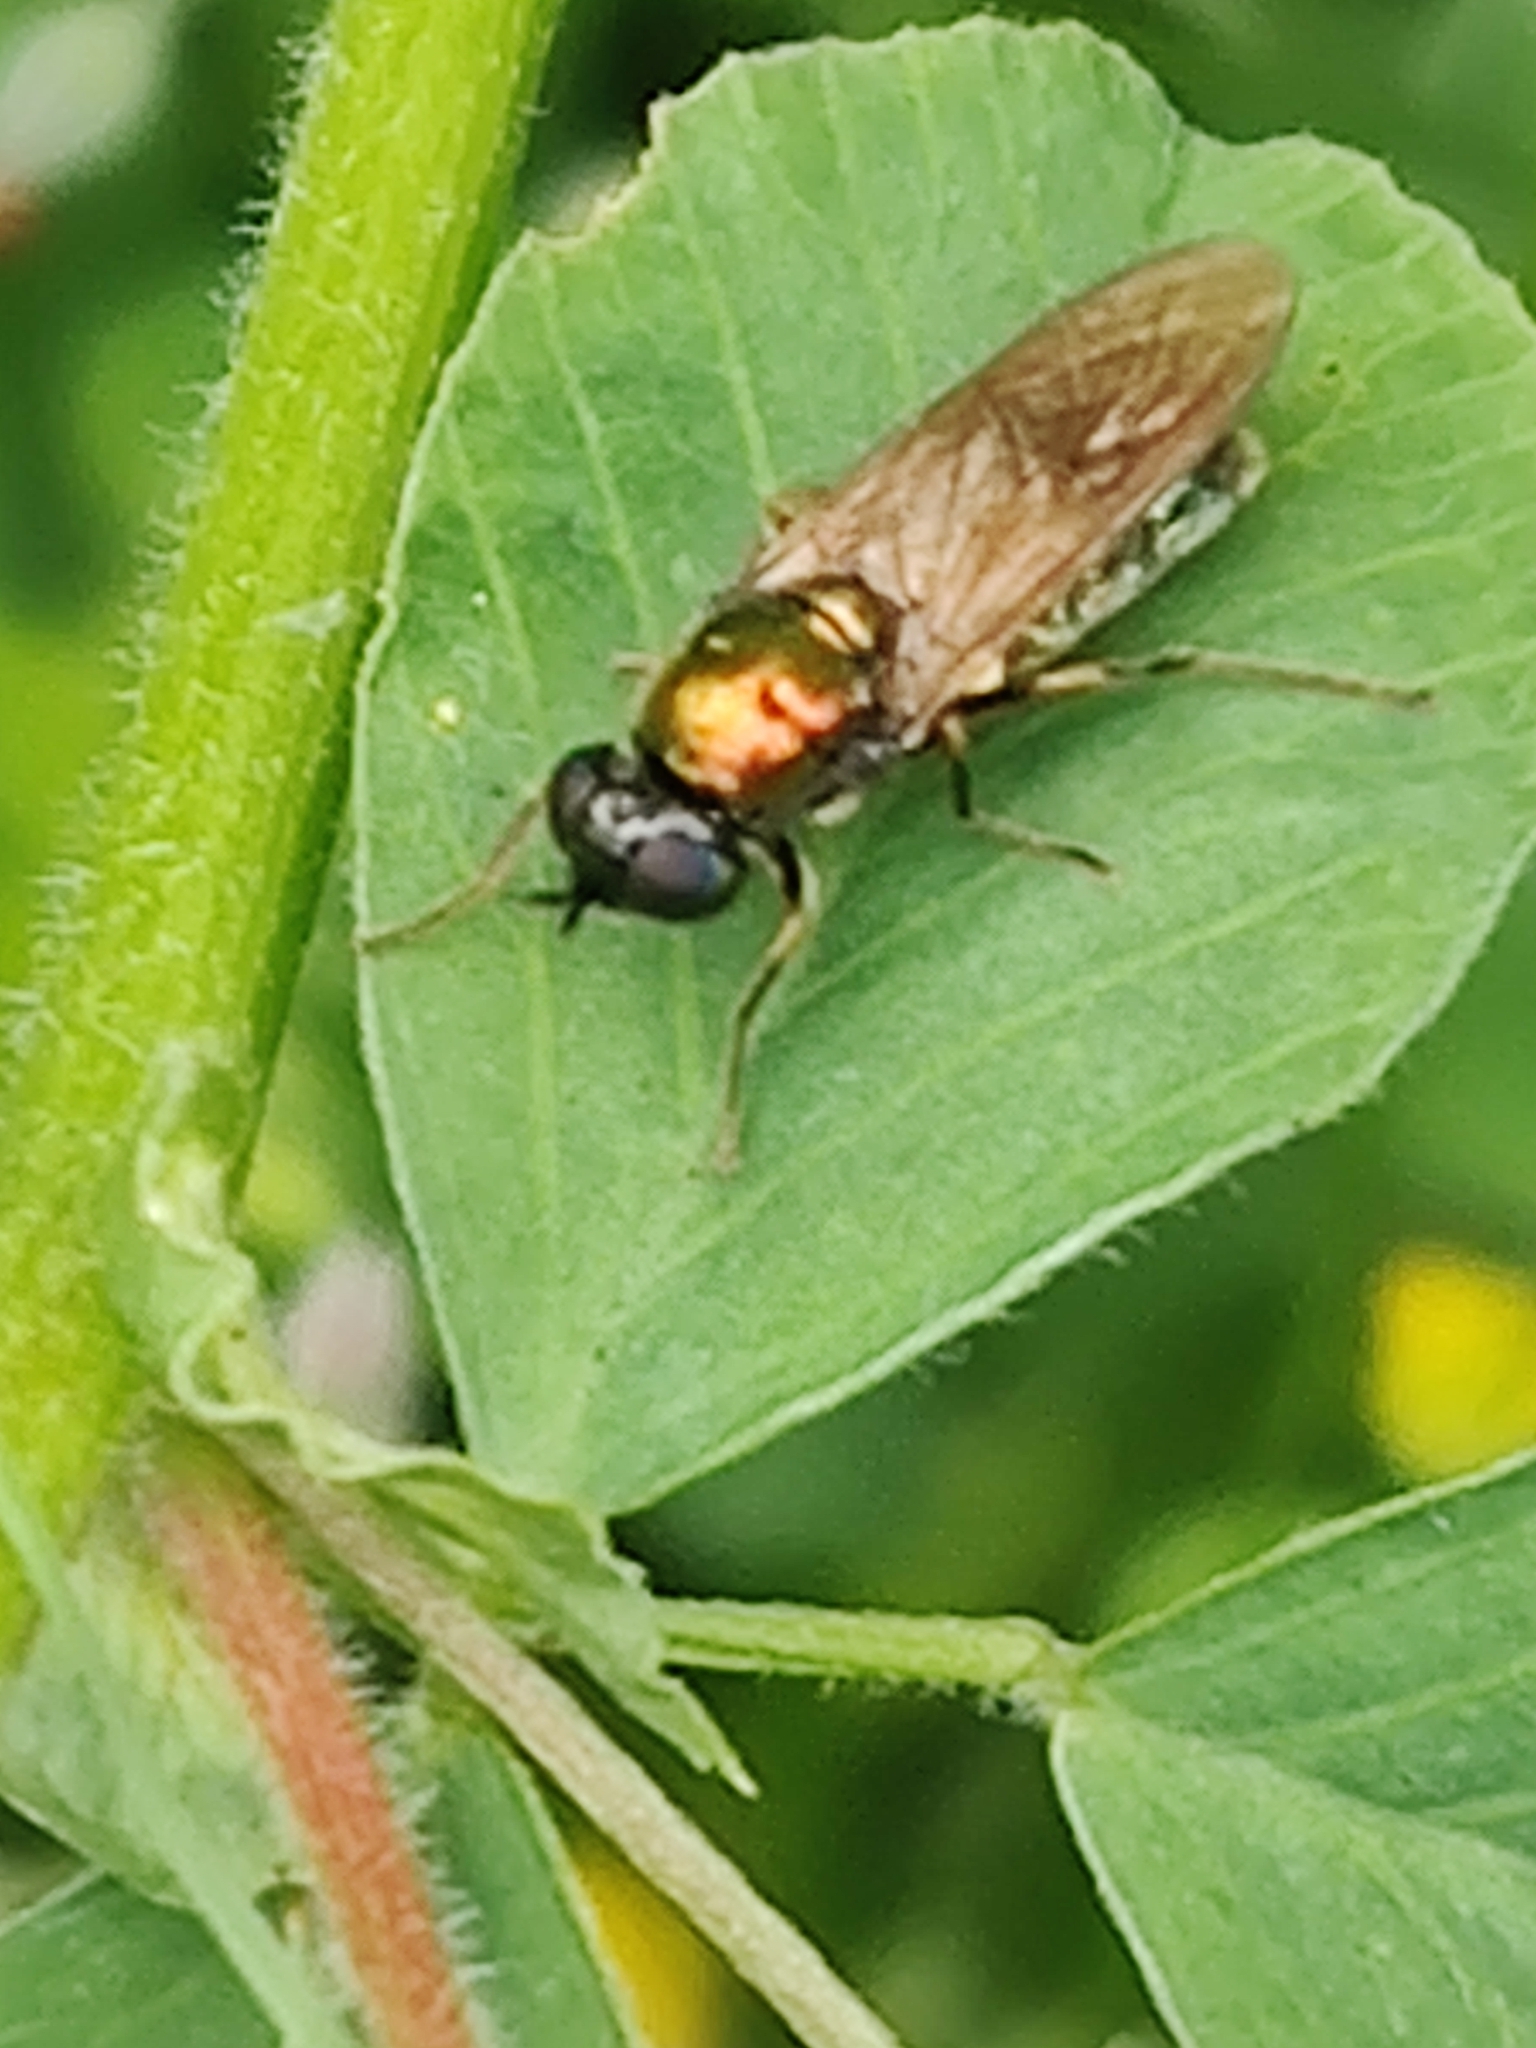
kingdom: Animalia
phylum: Arthropoda
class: Insecta
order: Diptera
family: Stratiomyidae
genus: Chloromyia
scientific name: Chloromyia formosa
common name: Soldier fly
